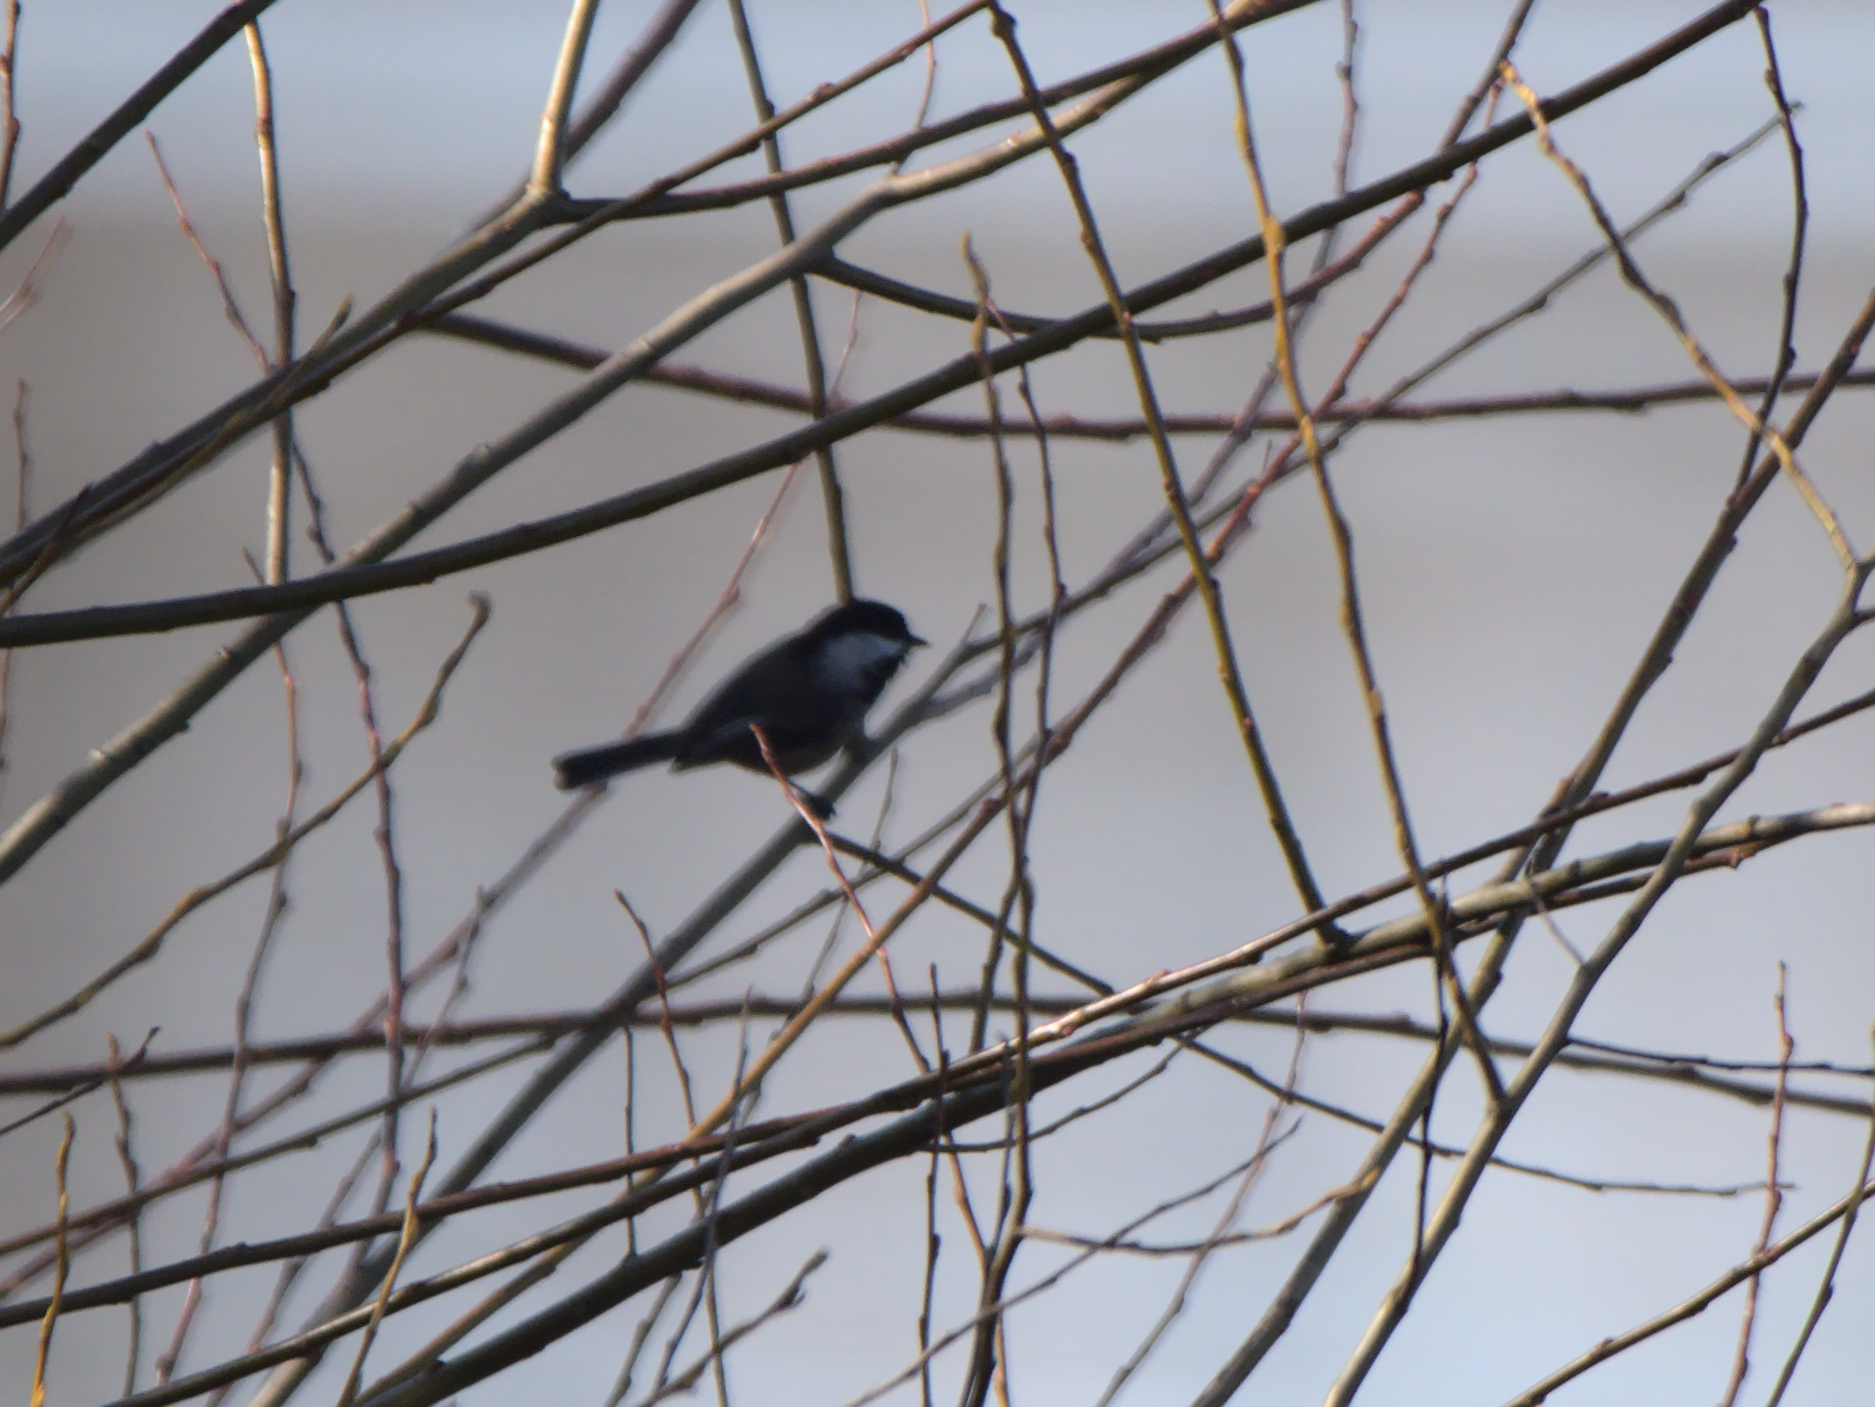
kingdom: Animalia
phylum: Chordata
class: Aves
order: Passeriformes
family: Paridae
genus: Poecile
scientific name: Poecile atricapillus
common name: Black-capped chickadee
